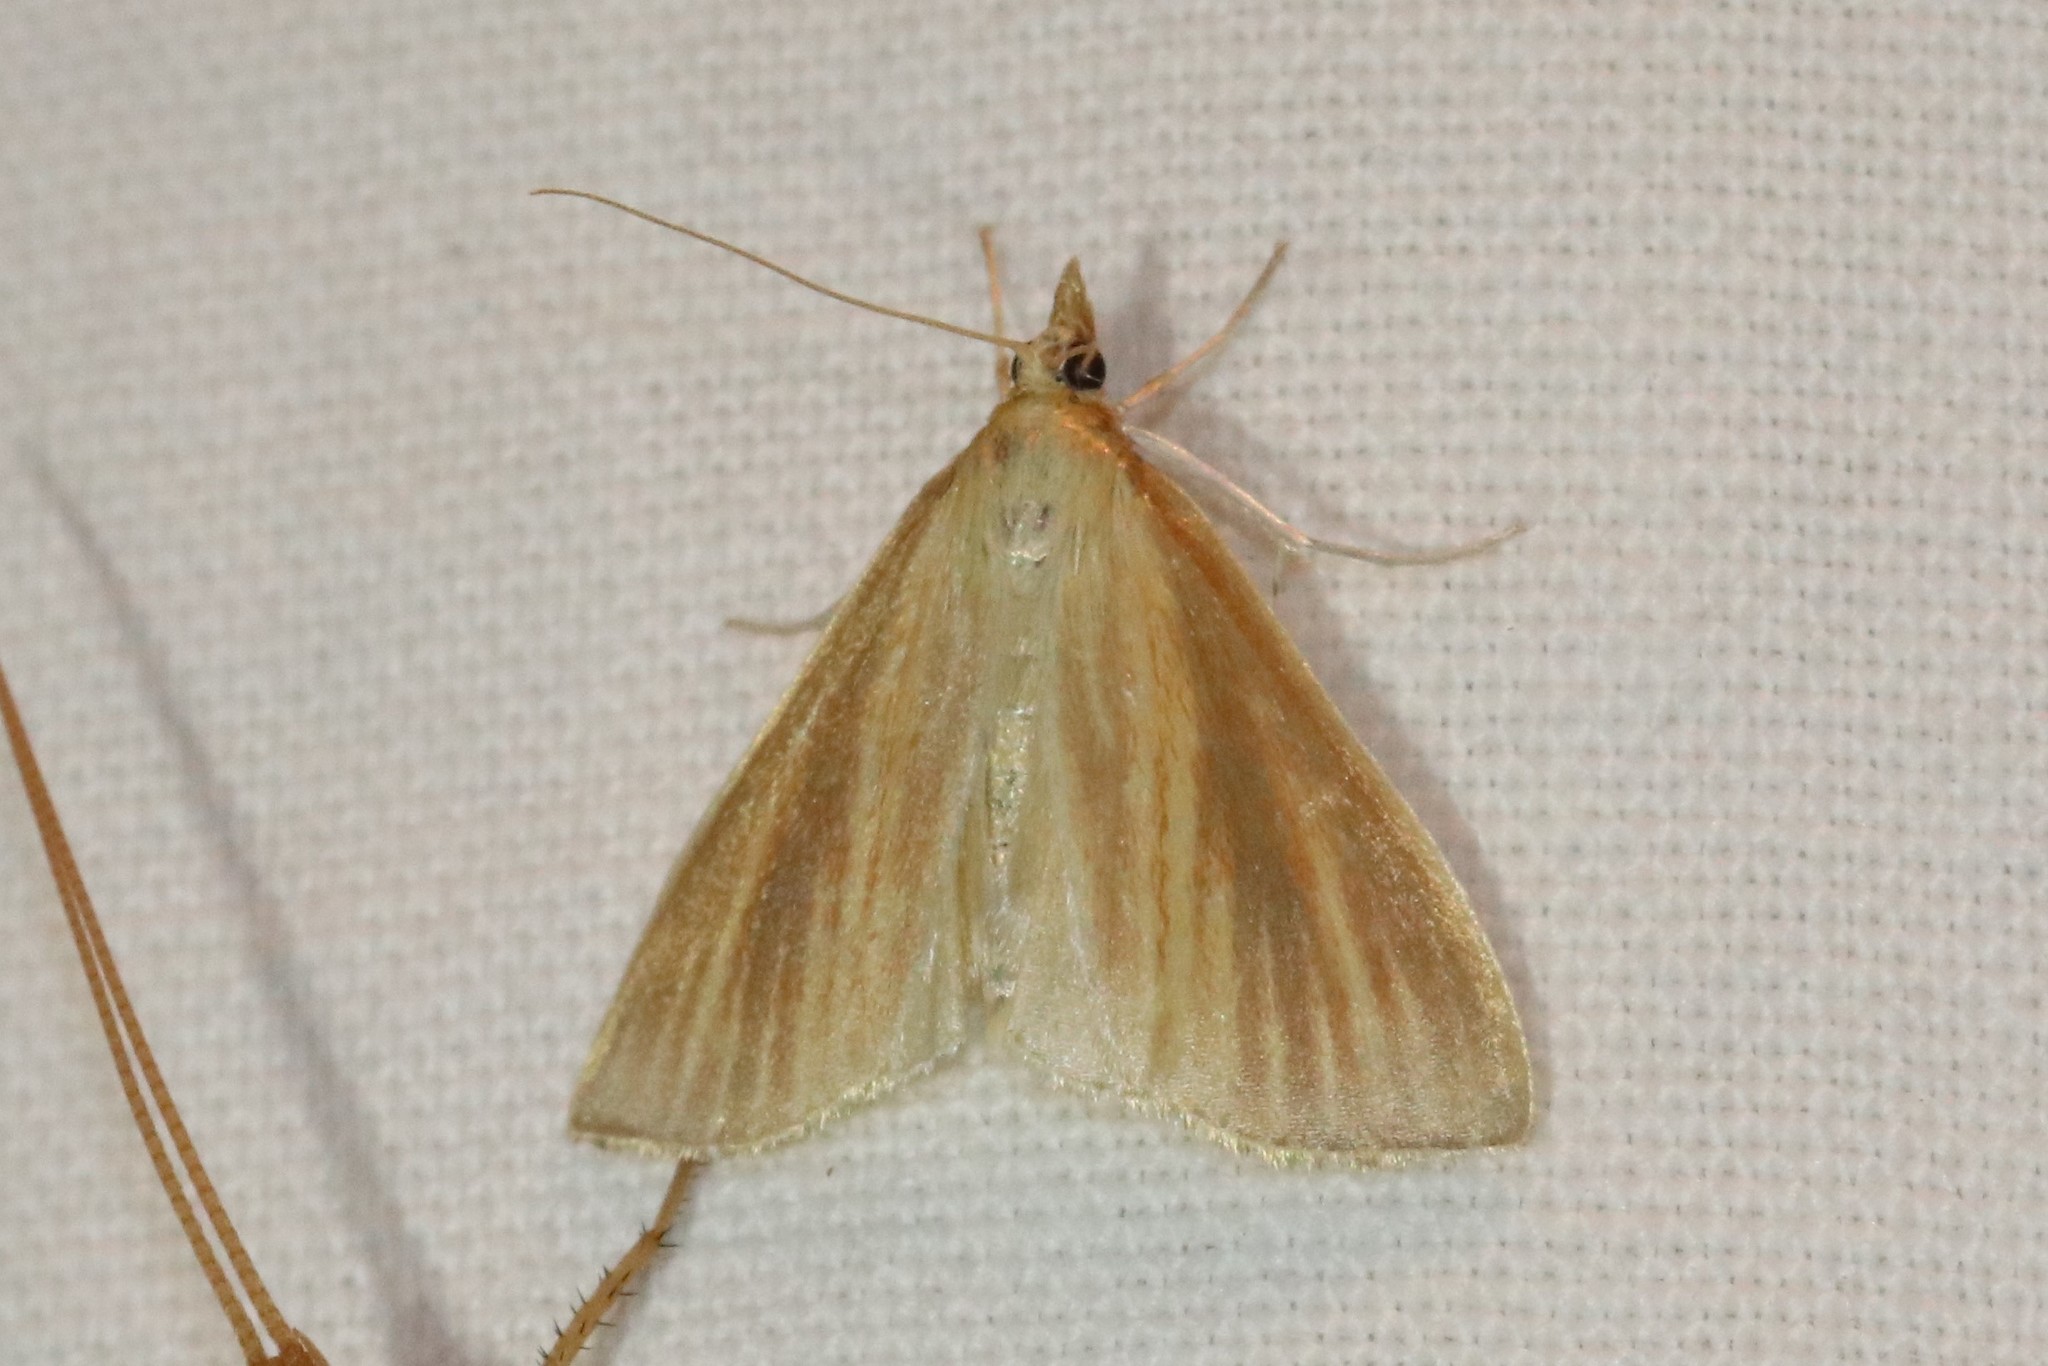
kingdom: Animalia
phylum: Arthropoda
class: Insecta
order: Lepidoptera
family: Crambidae
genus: Nascia
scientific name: Nascia acutellus
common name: Streaked orange moth
